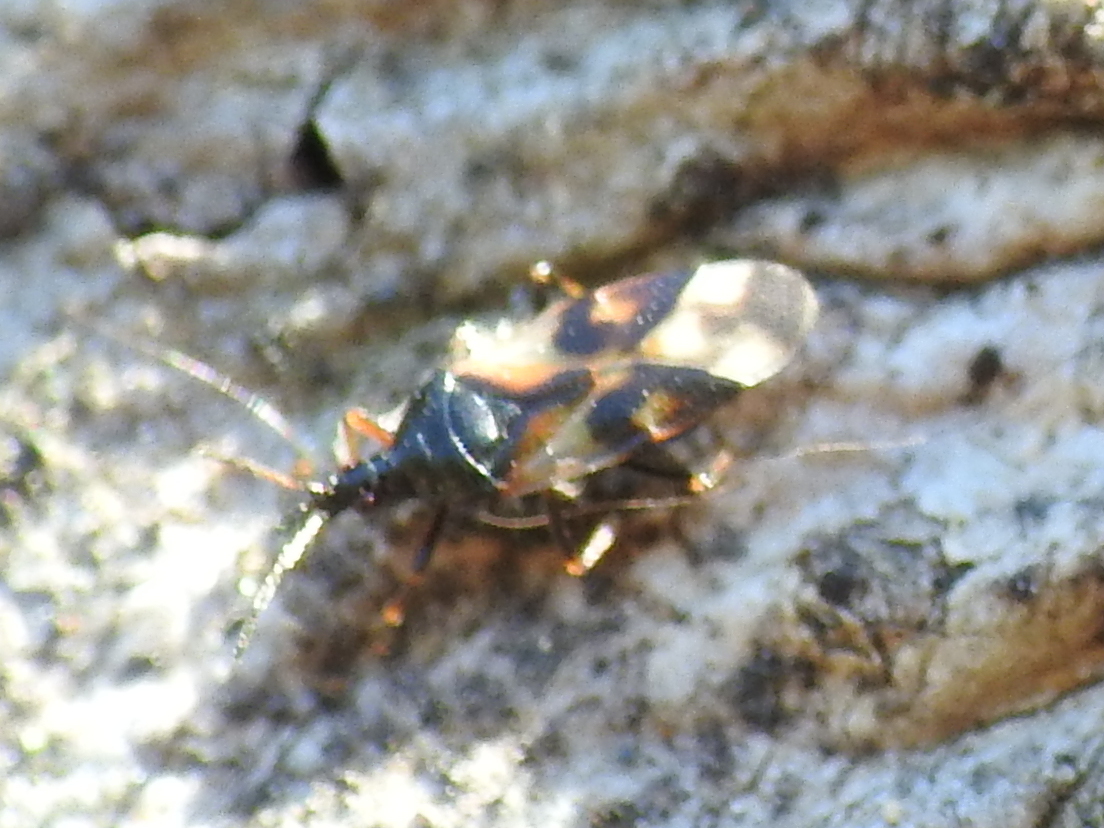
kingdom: Animalia
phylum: Arthropoda
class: Insecta
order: Hemiptera
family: Anthocoridae
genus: Anthocoris
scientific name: Anthocoris nemorum
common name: Minute pirate bug
